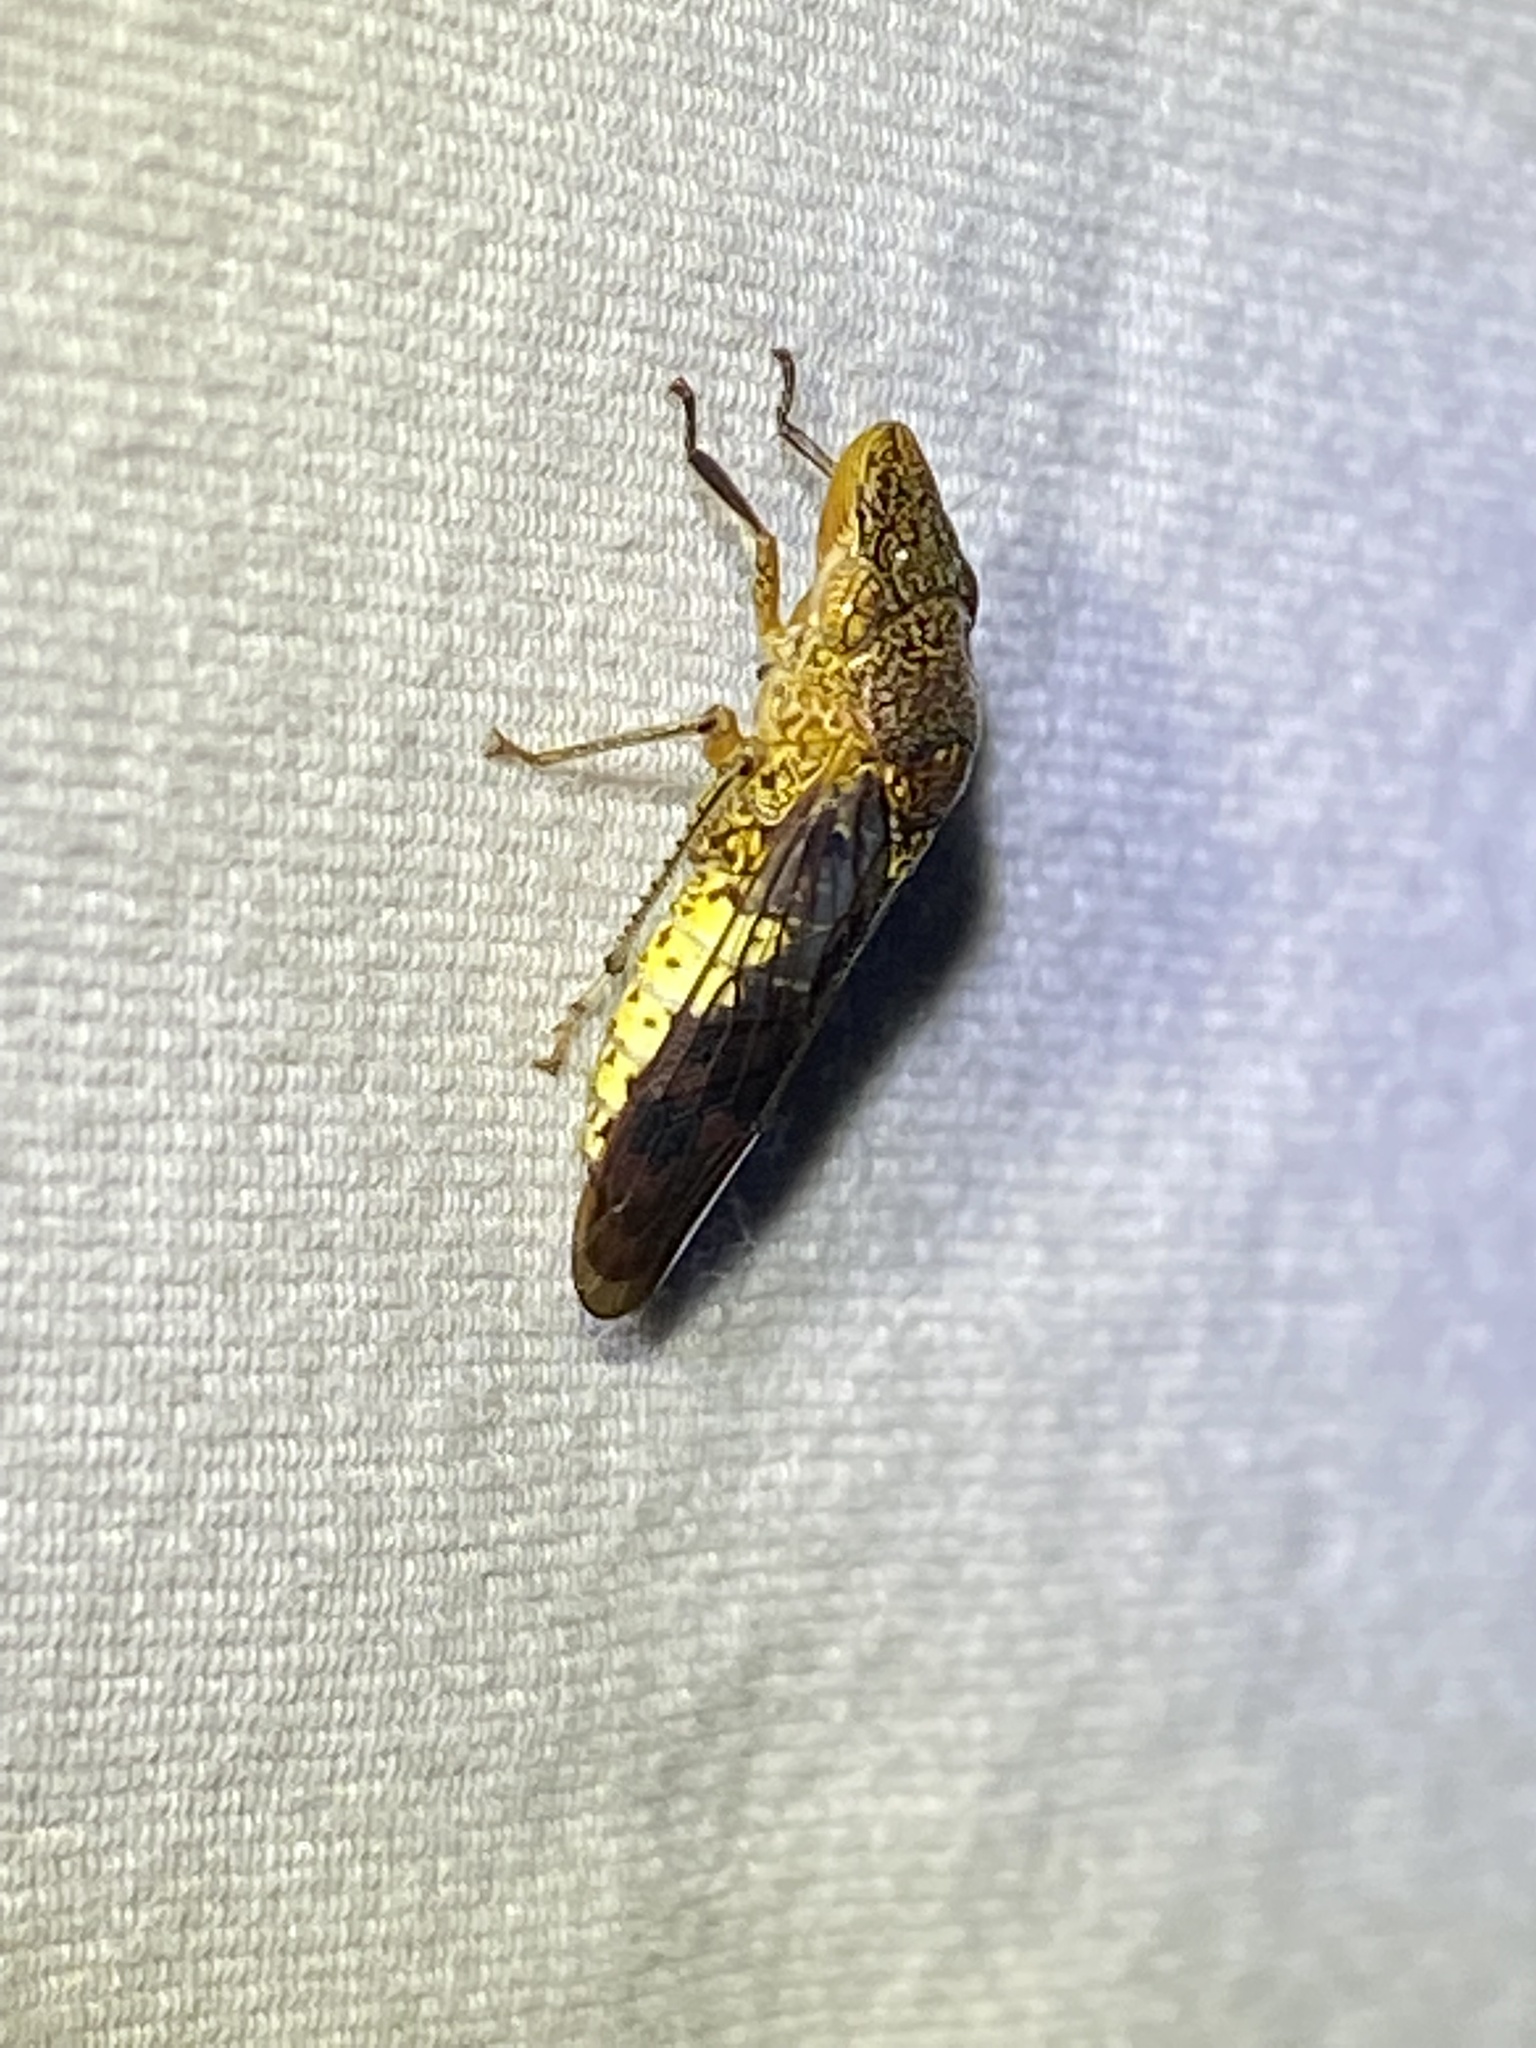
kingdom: Animalia
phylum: Arthropoda
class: Insecta
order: Hemiptera
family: Cicadellidae
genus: Homalodisca
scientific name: Homalodisca vitripennis
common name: Glassy-winged sharpshooter
